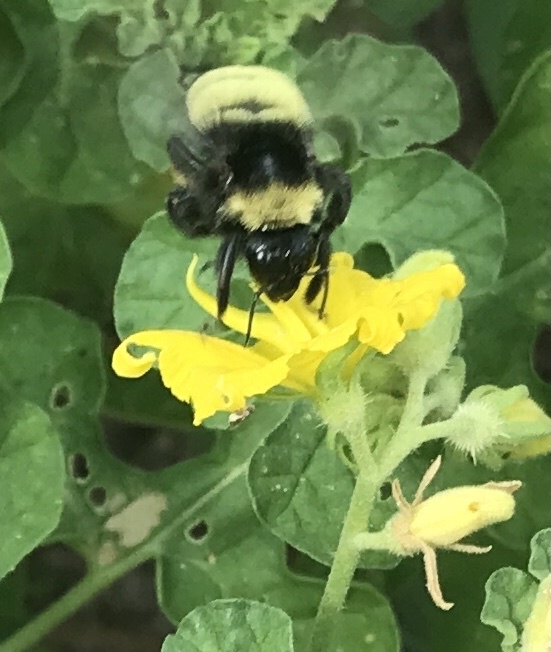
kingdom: Animalia
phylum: Arthropoda
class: Insecta
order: Hymenoptera
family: Apidae
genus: Bombus
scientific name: Bombus pensylvanicus
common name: Bumble bee
